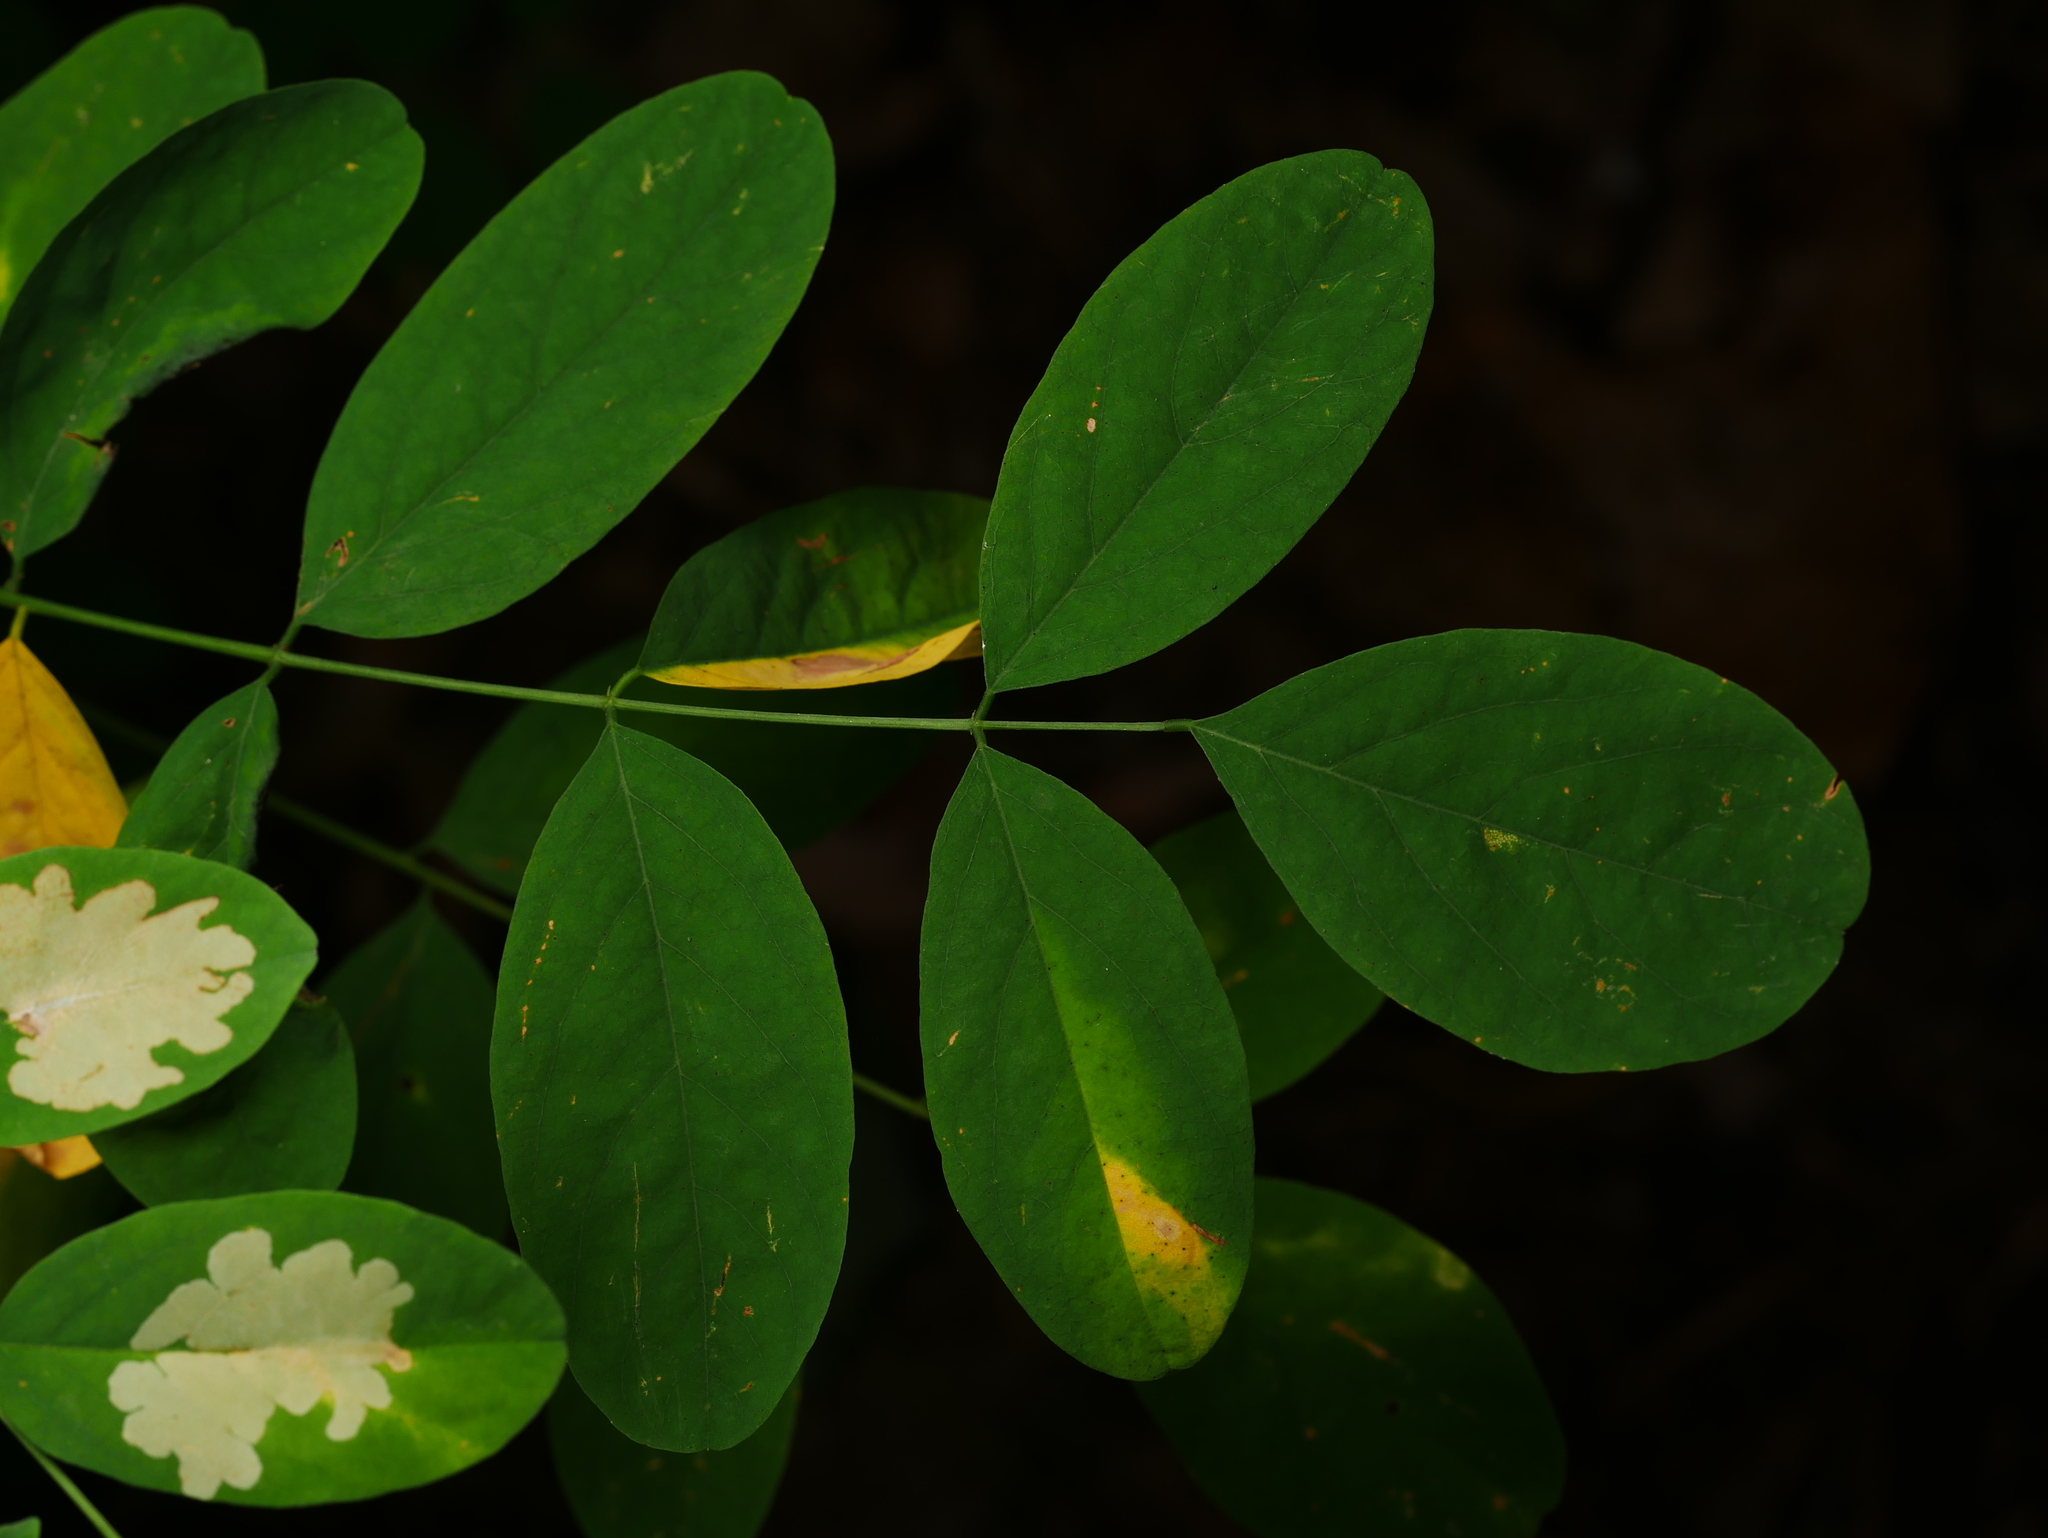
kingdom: Plantae
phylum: Tracheophyta
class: Magnoliopsida
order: Fabales
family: Fabaceae
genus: Robinia
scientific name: Robinia pseudoacacia
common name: Black locust
